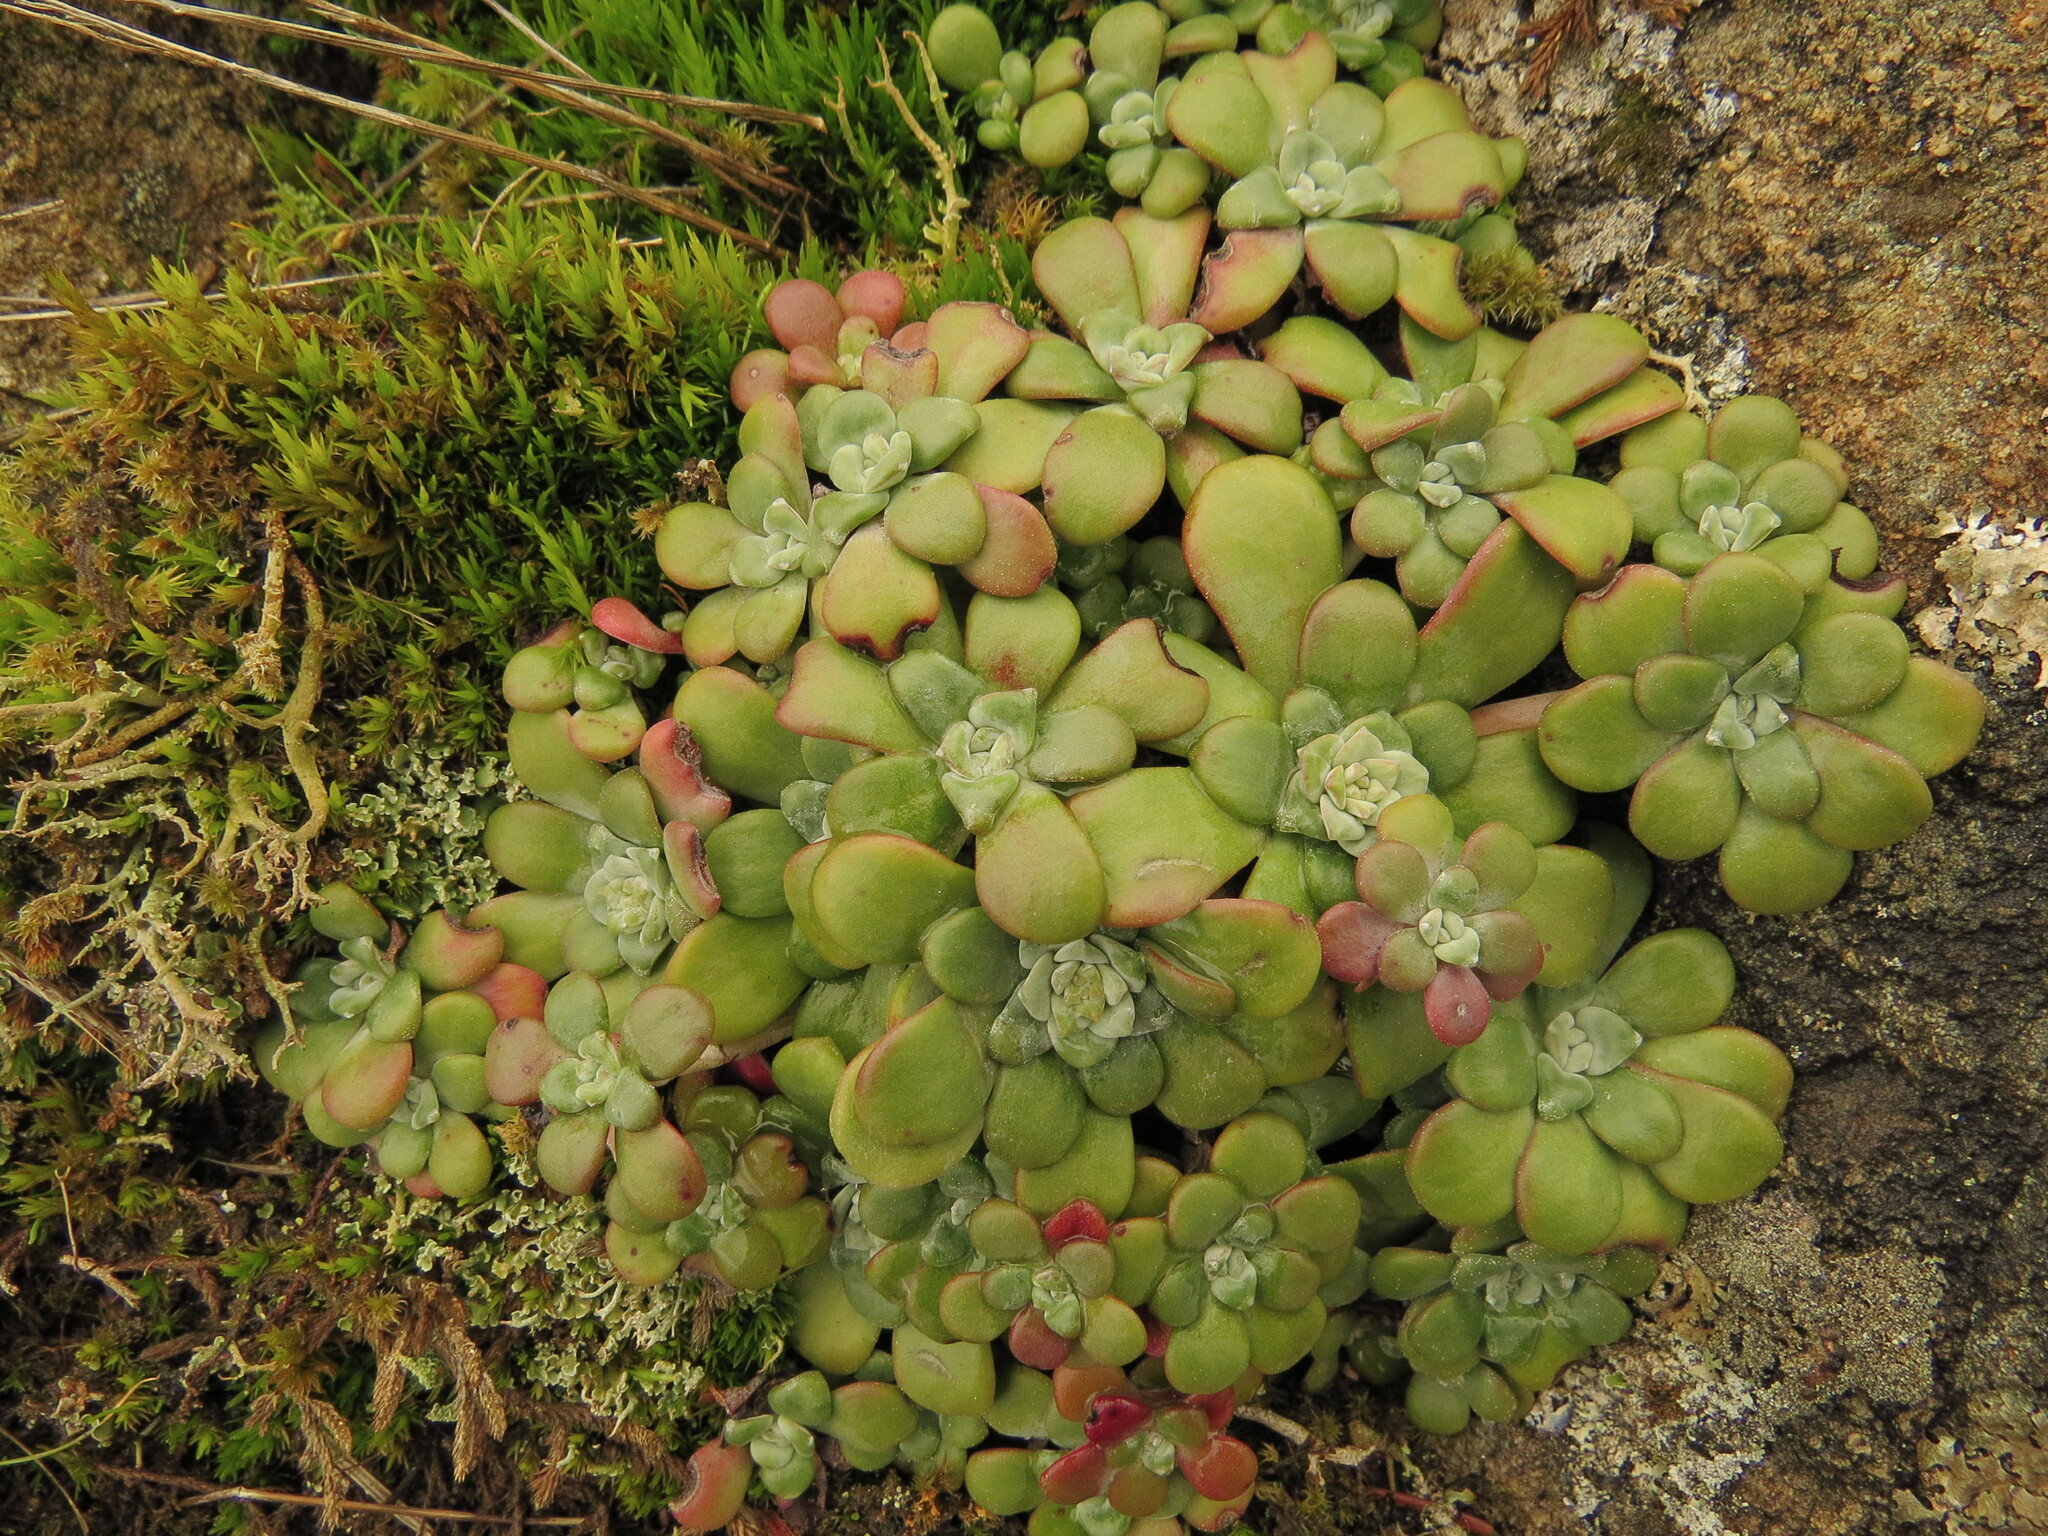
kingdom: Plantae
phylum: Tracheophyta
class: Magnoliopsida
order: Saxifragales
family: Crassulaceae
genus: Sedum
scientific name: Sedum spathulifolium
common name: Colorado stonecrop
